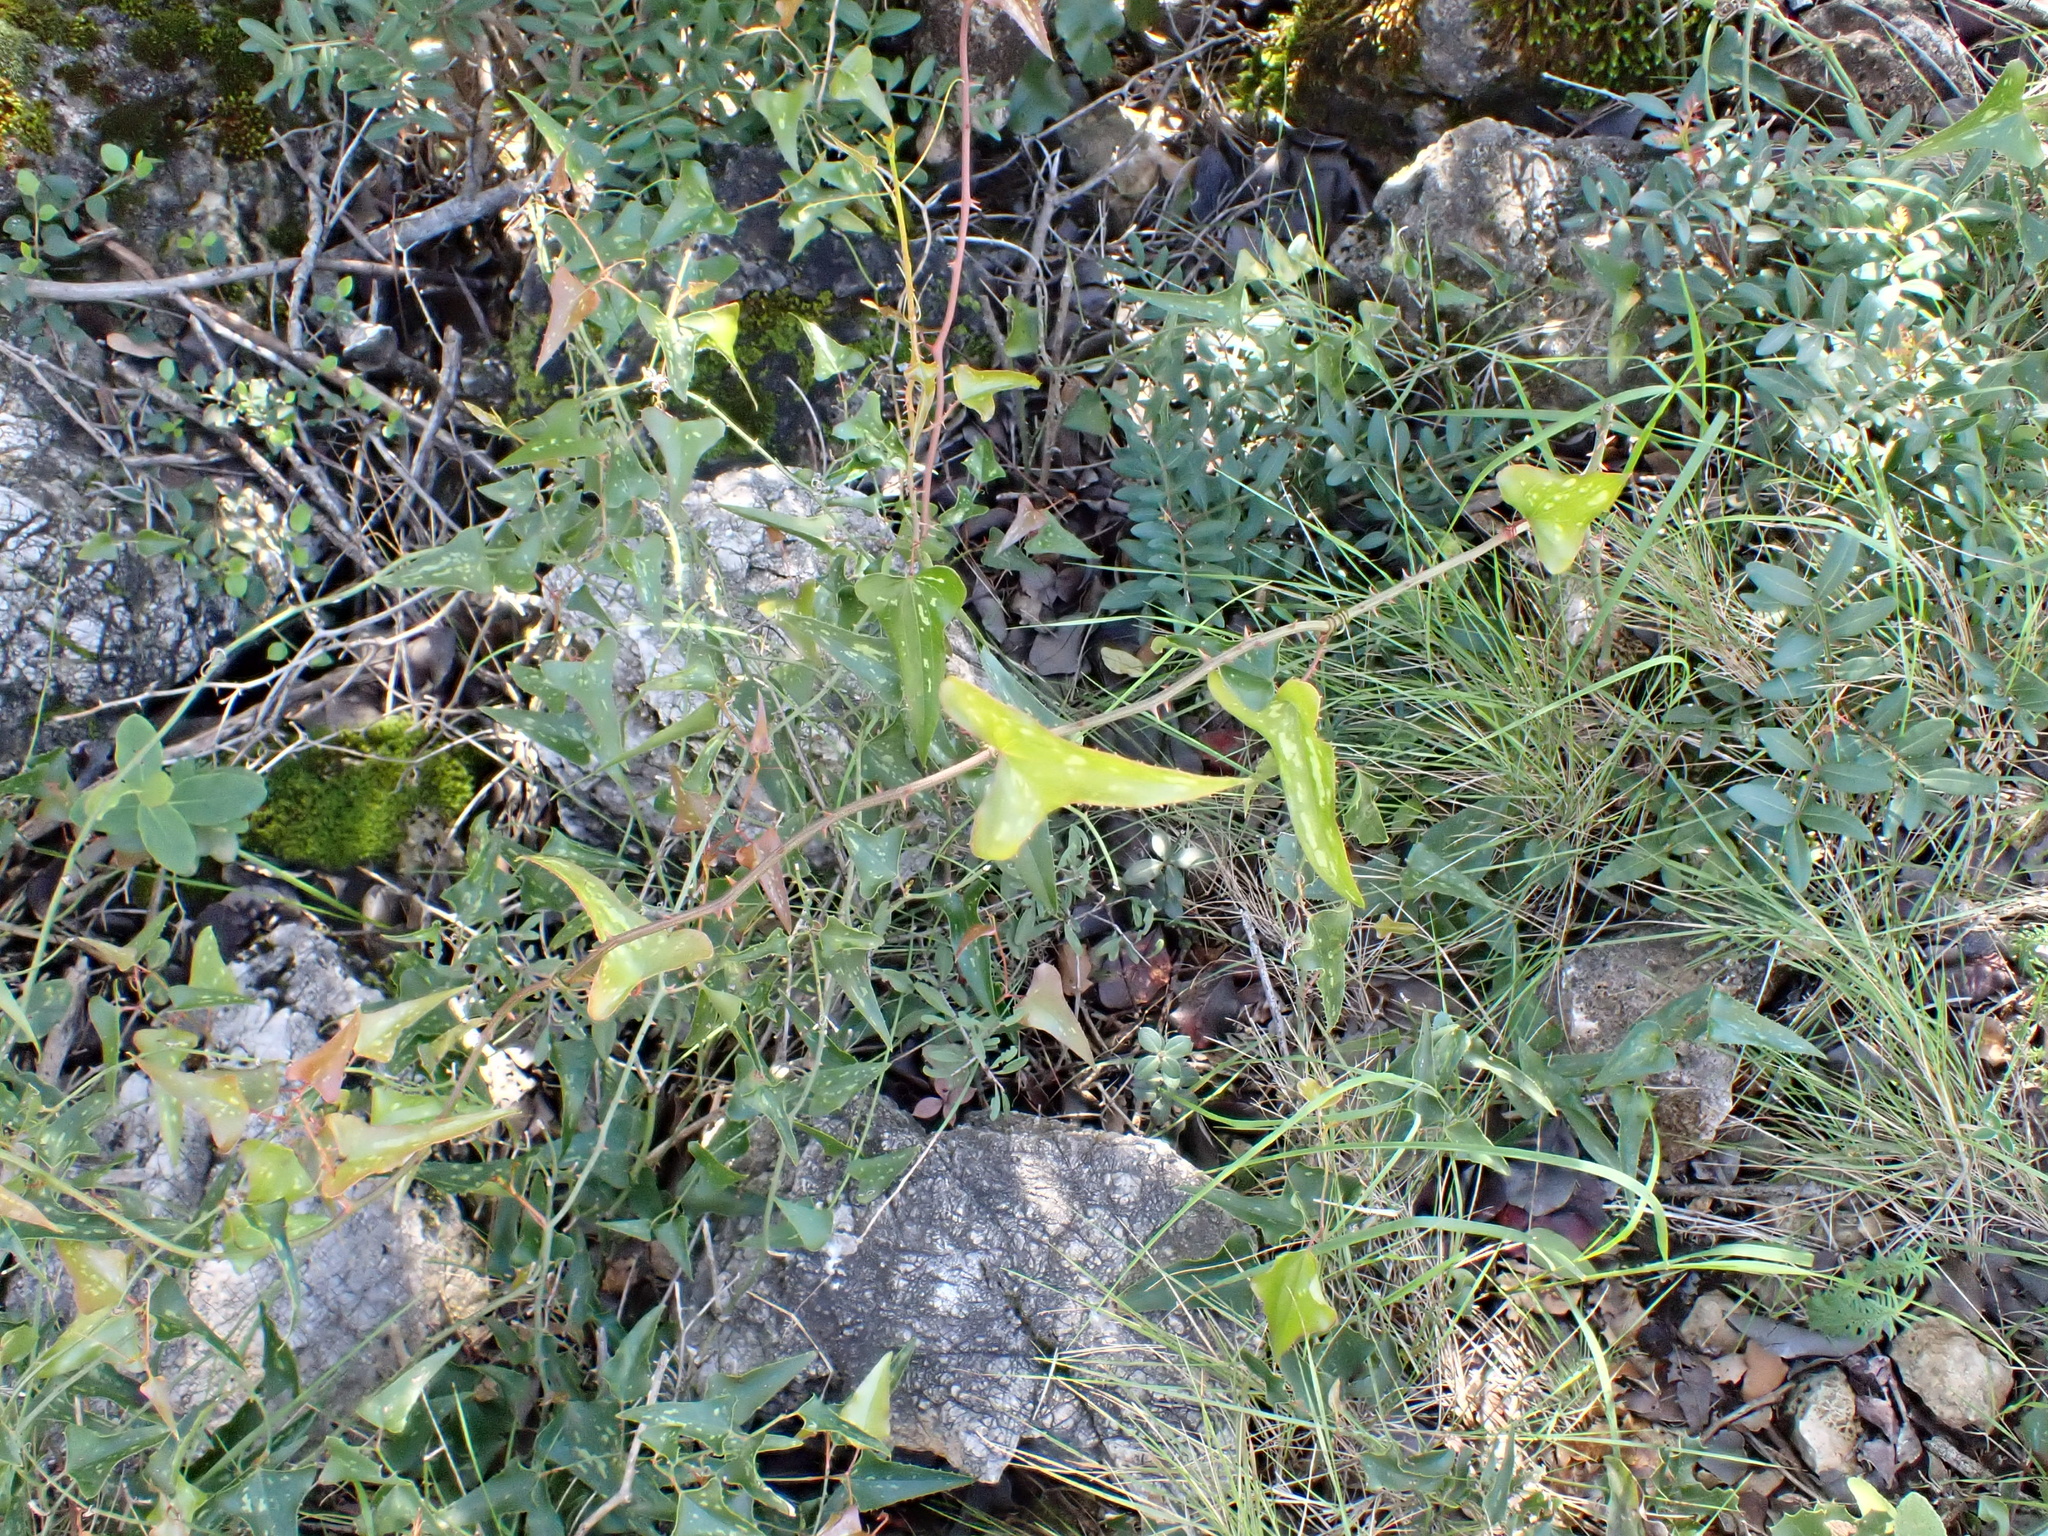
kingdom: Plantae
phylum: Tracheophyta
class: Liliopsida
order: Liliales
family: Smilacaceae
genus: Smilax
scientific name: Smilax aspera
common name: Common smilax
